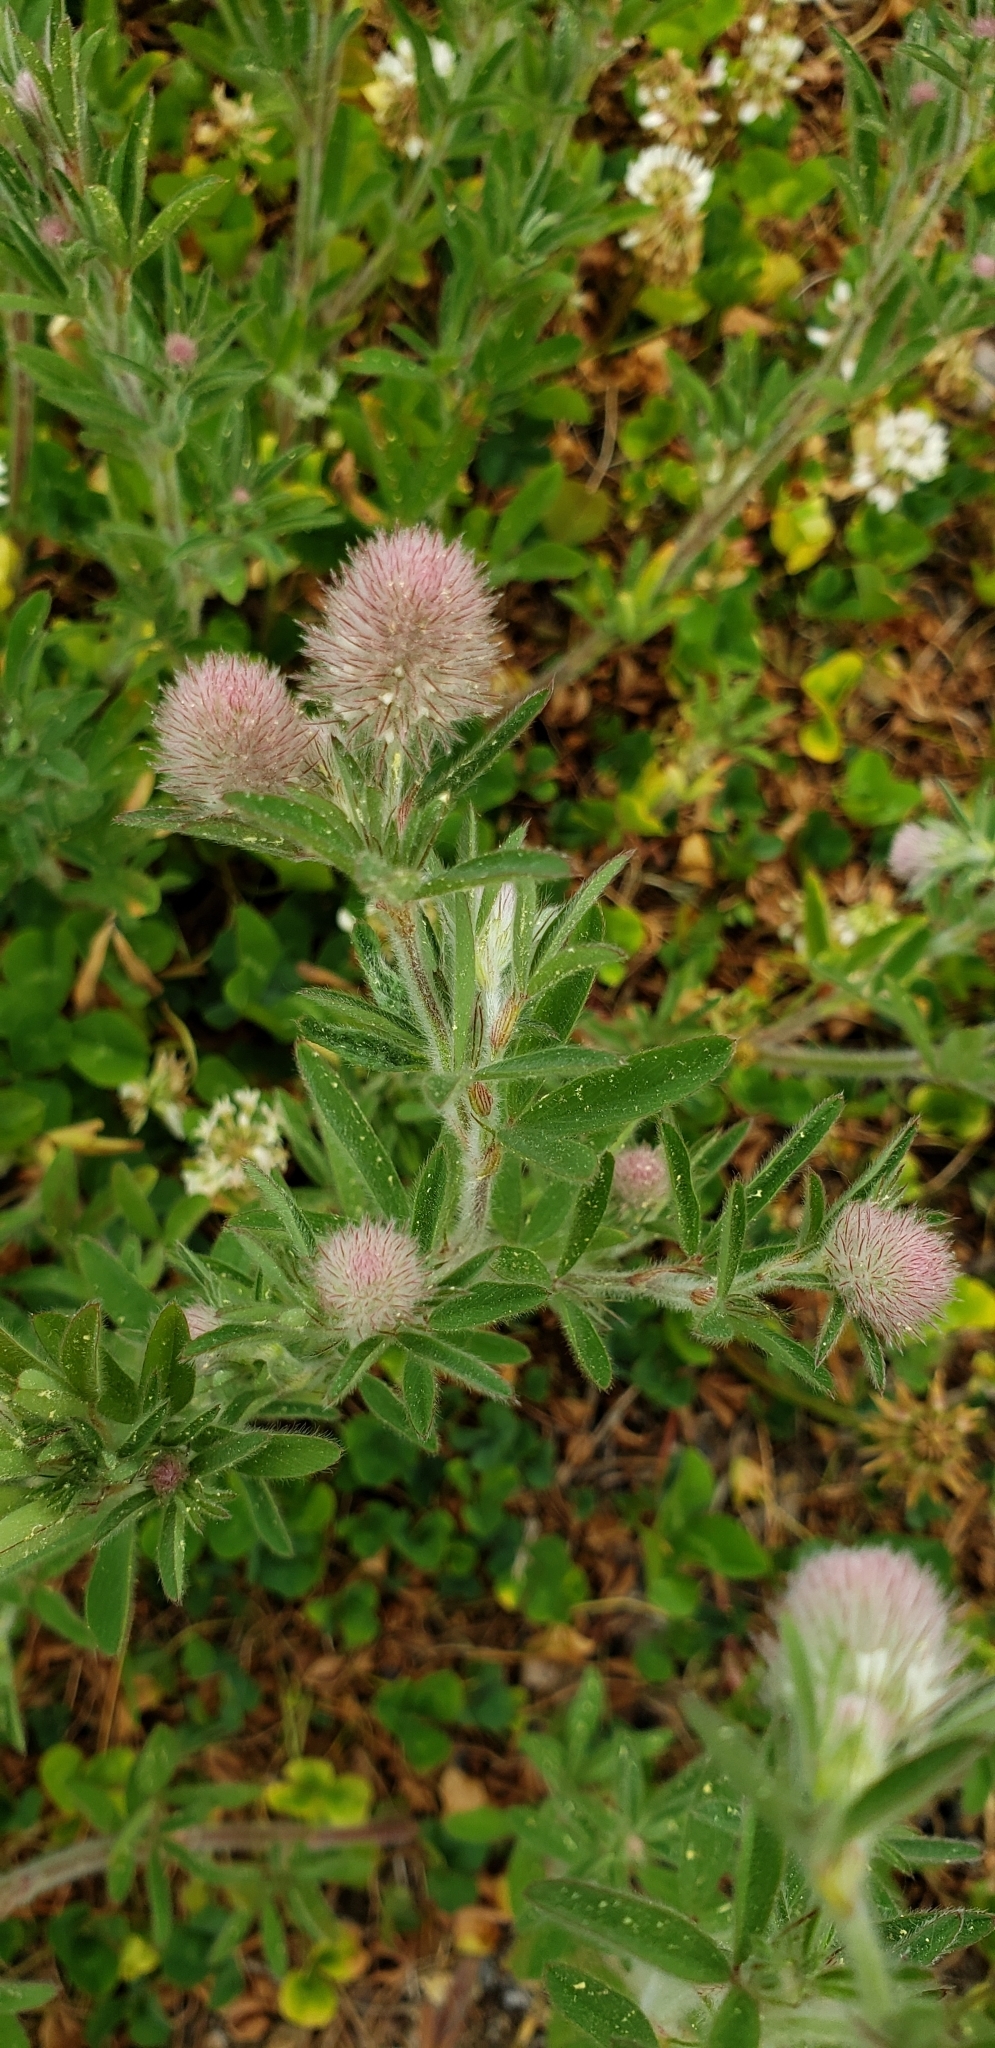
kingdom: Plantae
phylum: Tracheophyta
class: Magnoliopsida
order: Fabales
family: Fabaceae
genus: Trifolium
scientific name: Trifolium arvense
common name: Hare's-foot clover
